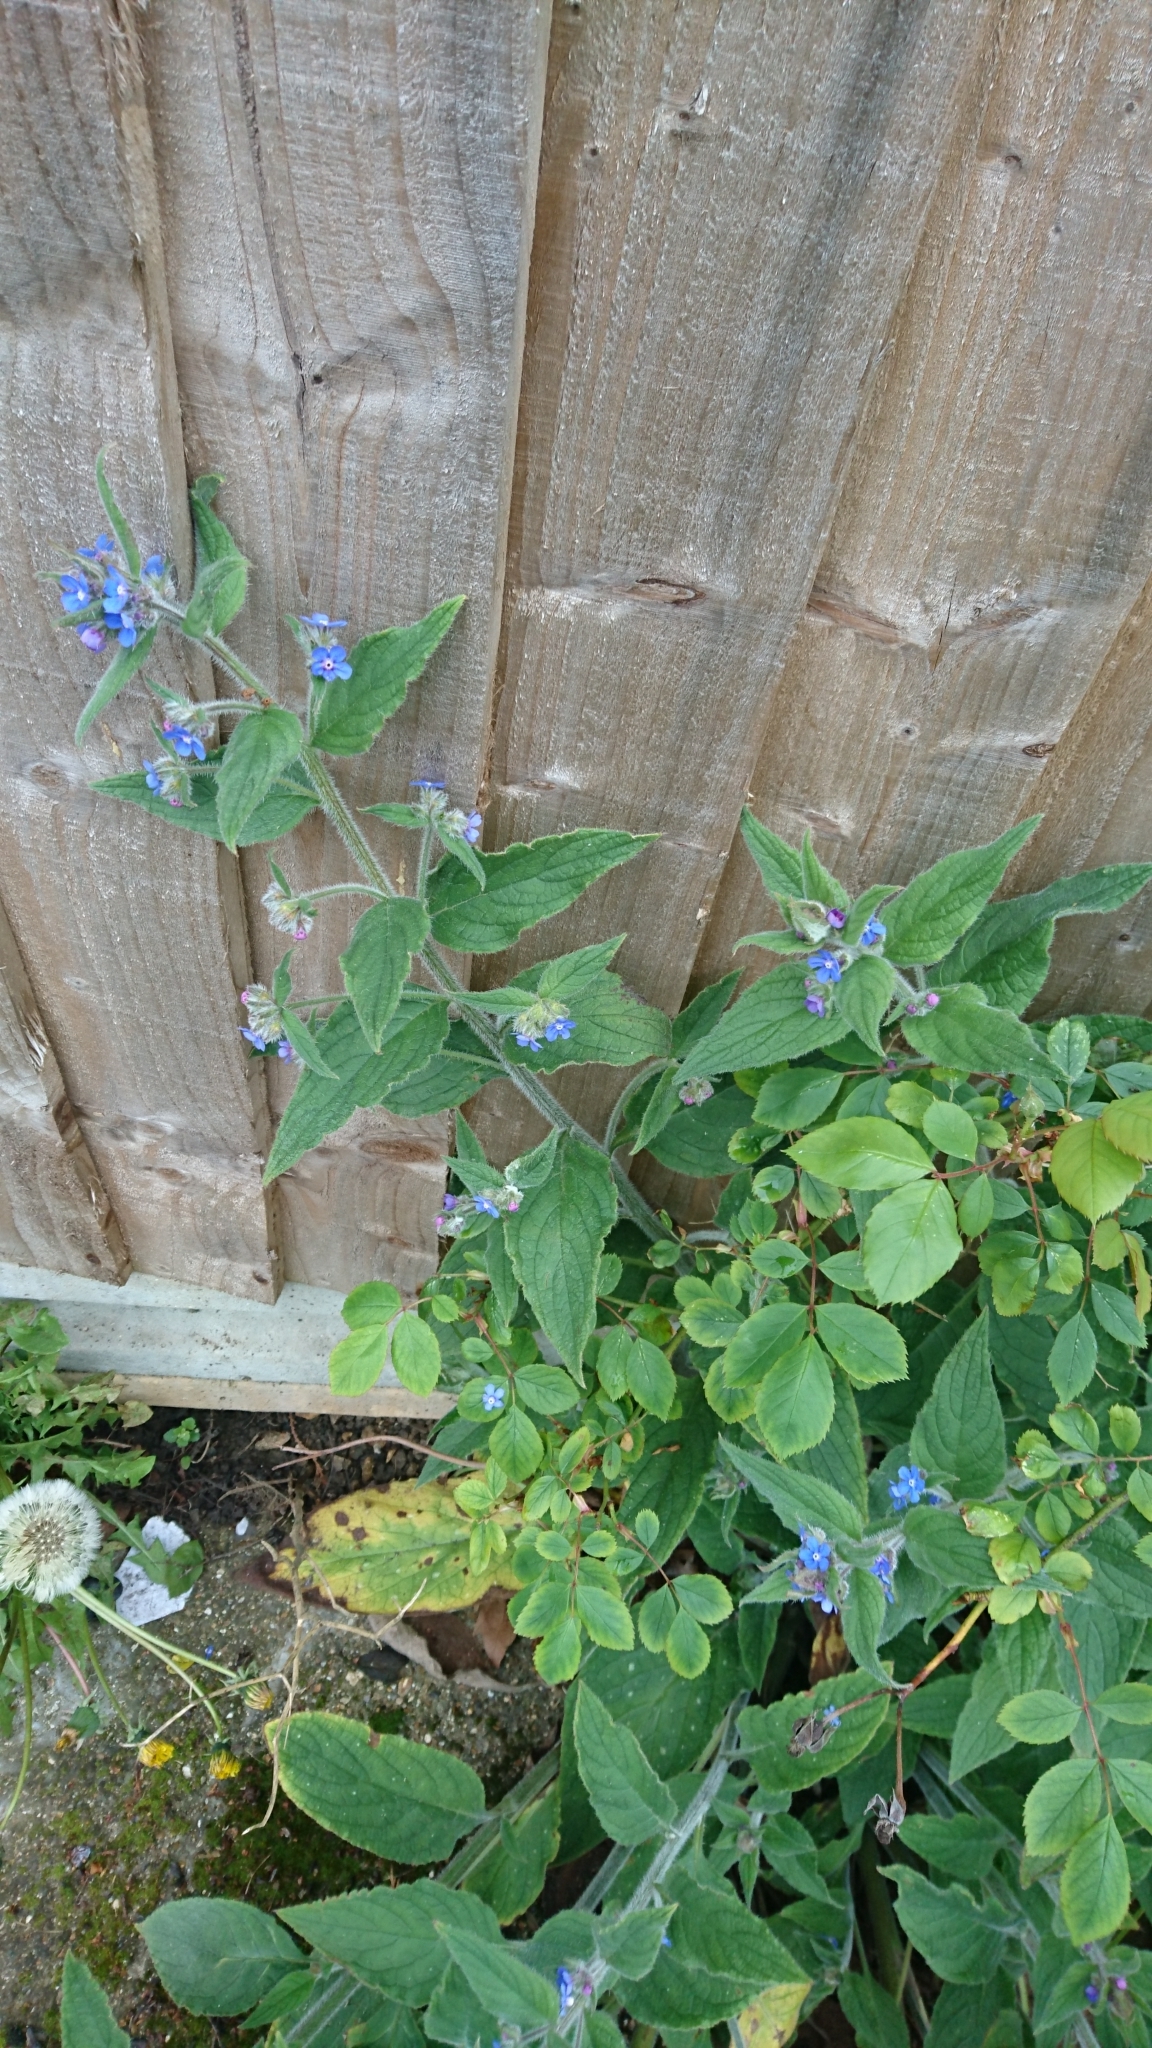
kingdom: Plantae
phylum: Tracheophyta
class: Magnoliopsida
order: Boraginales
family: Boraginaceae
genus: Pentaglottis
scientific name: Pentaglottis sempervirens
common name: Green alkanet
